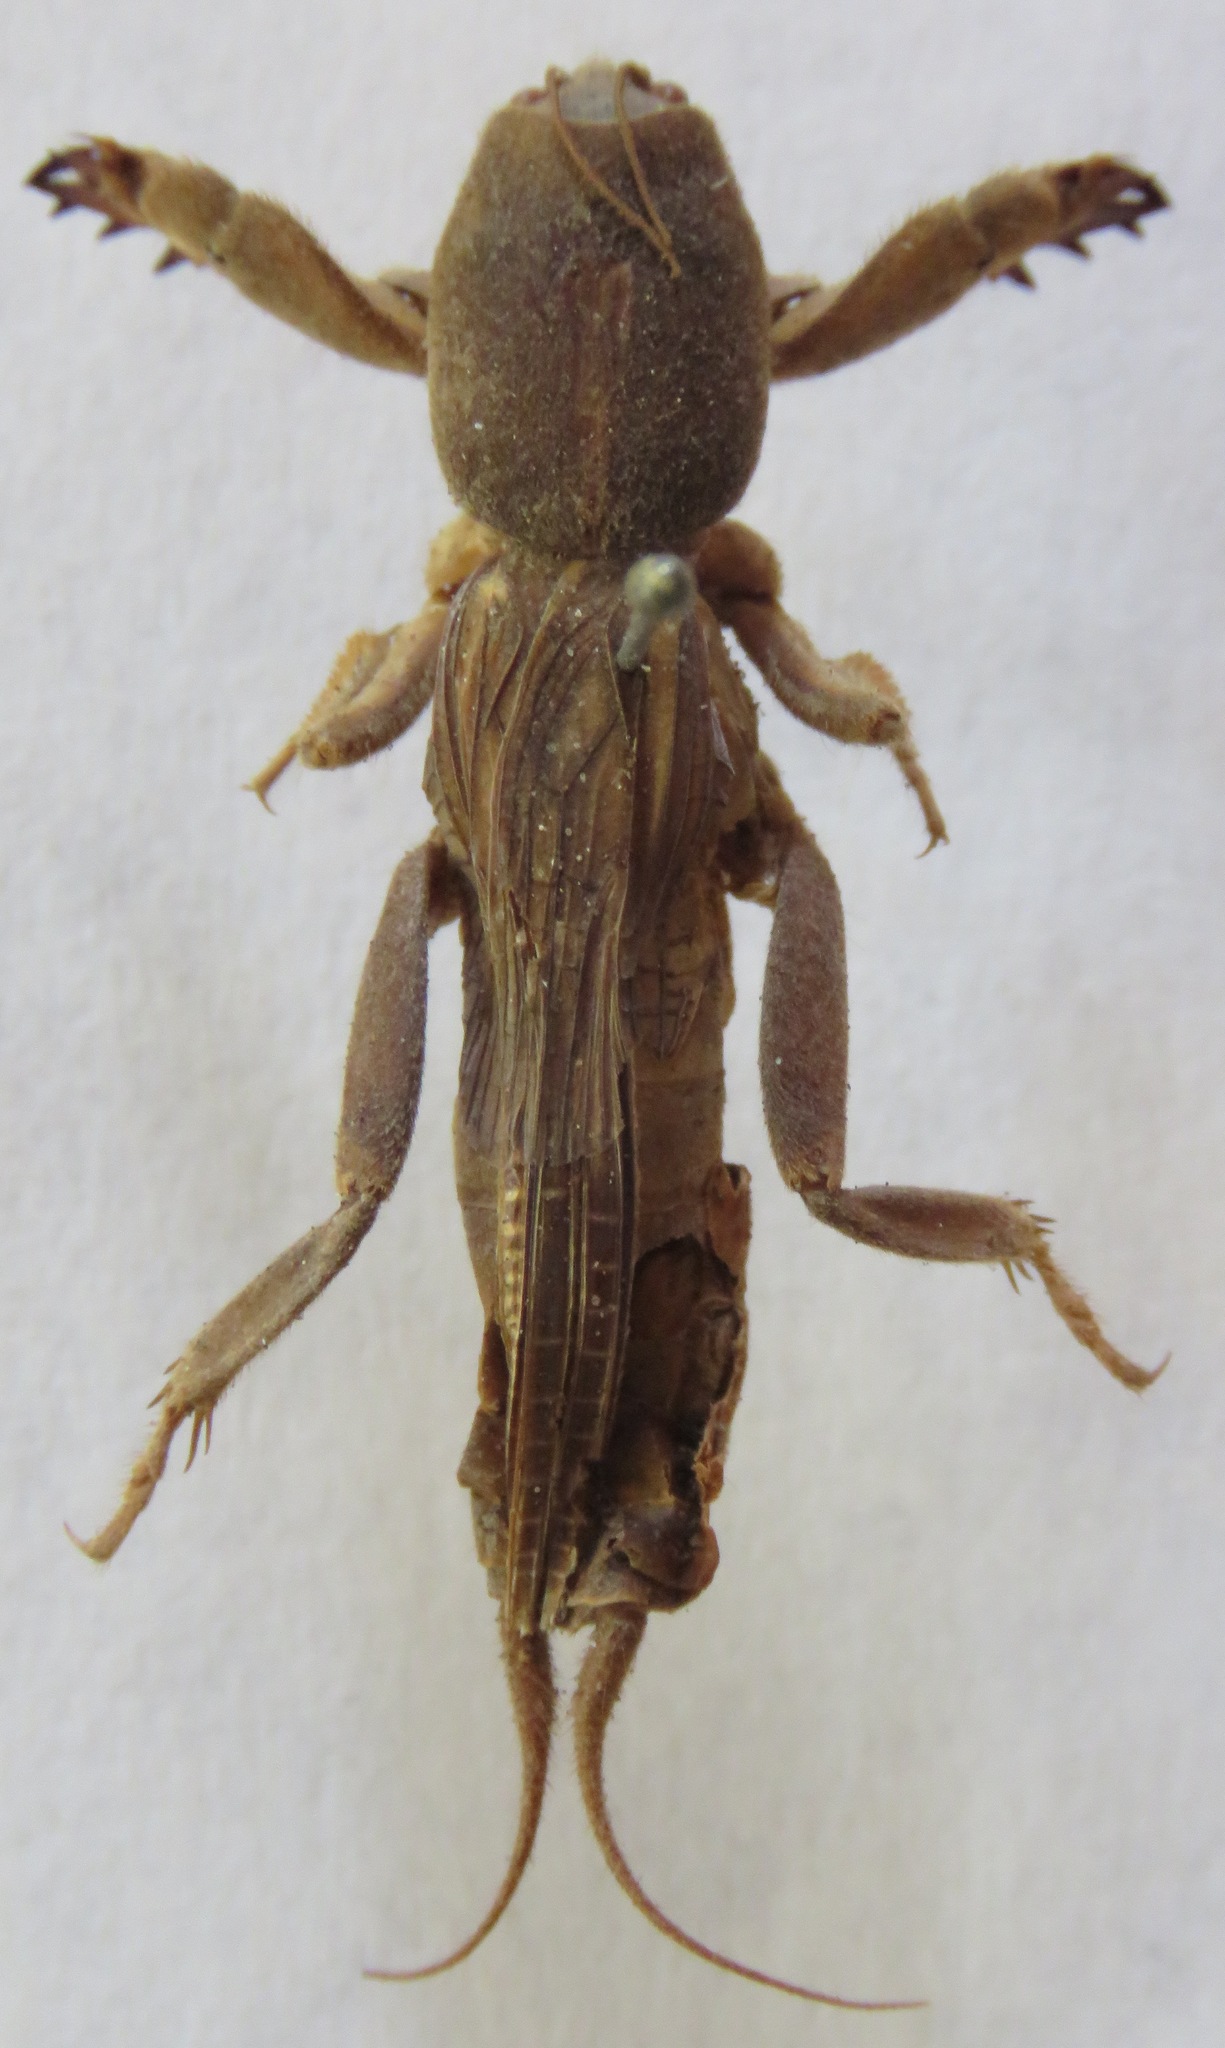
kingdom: Animalia
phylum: Arthropoda
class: Insecta
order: Orthoptera
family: Gryllotalpidae
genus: Neocurtilla
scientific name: Neocurtilla hexadactyla
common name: Northern mole cricket
